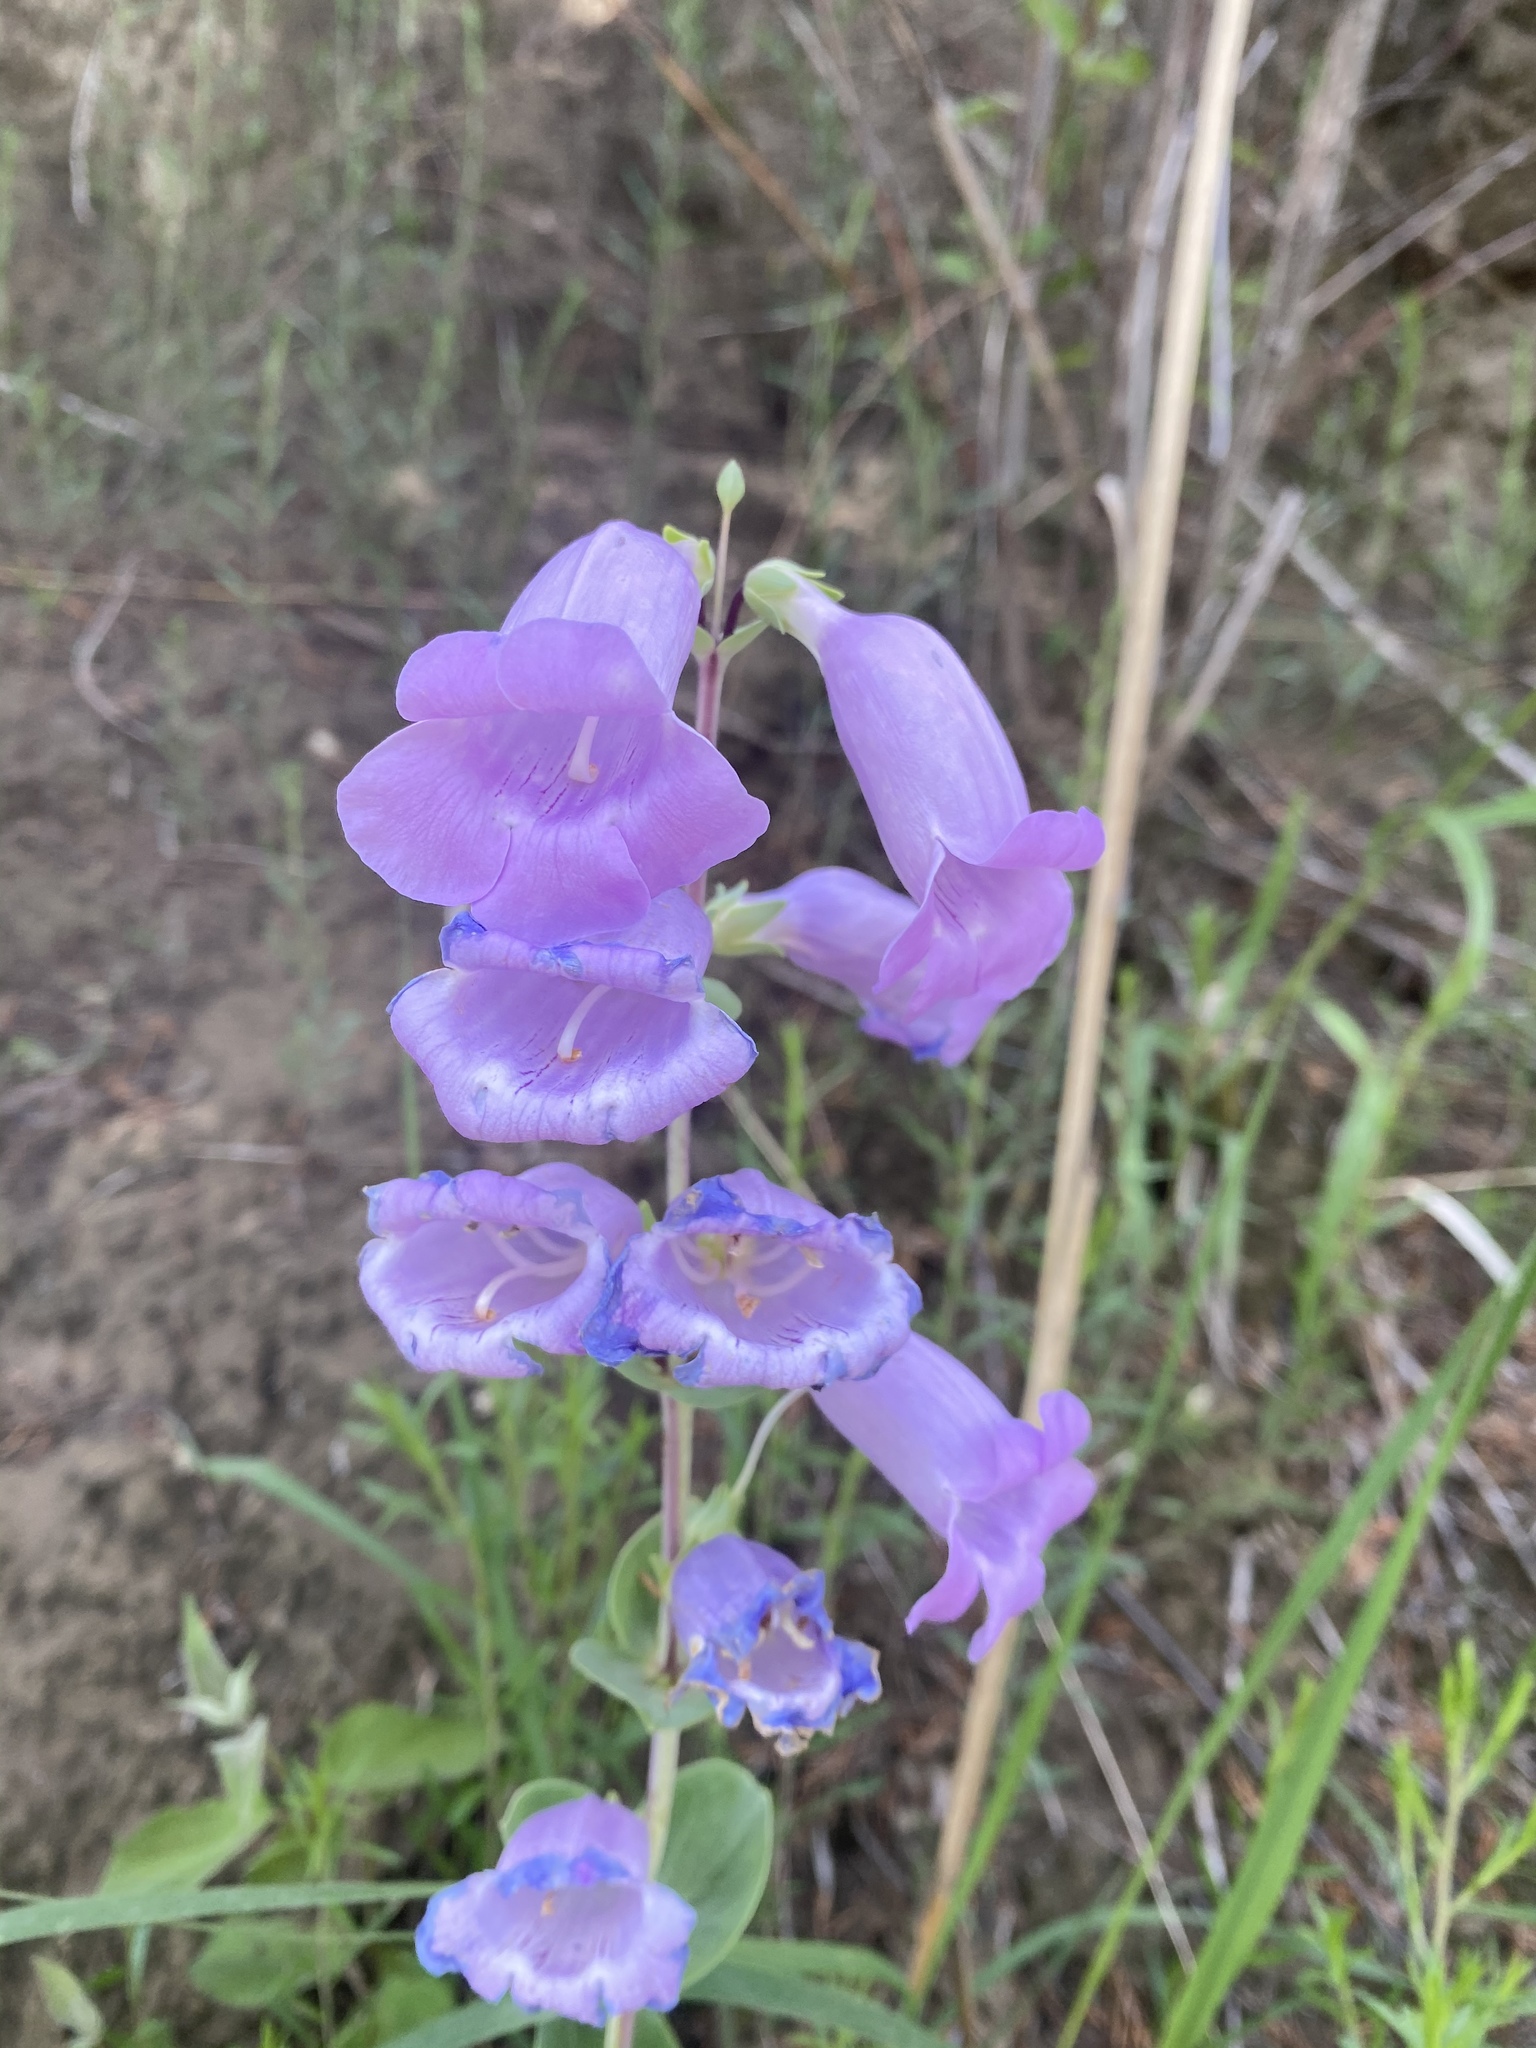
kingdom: Plantae
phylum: Tracheophyta
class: Magnoliopsida
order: Lamiales
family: Plantaginaceae
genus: Penstemon
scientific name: Penstemon
